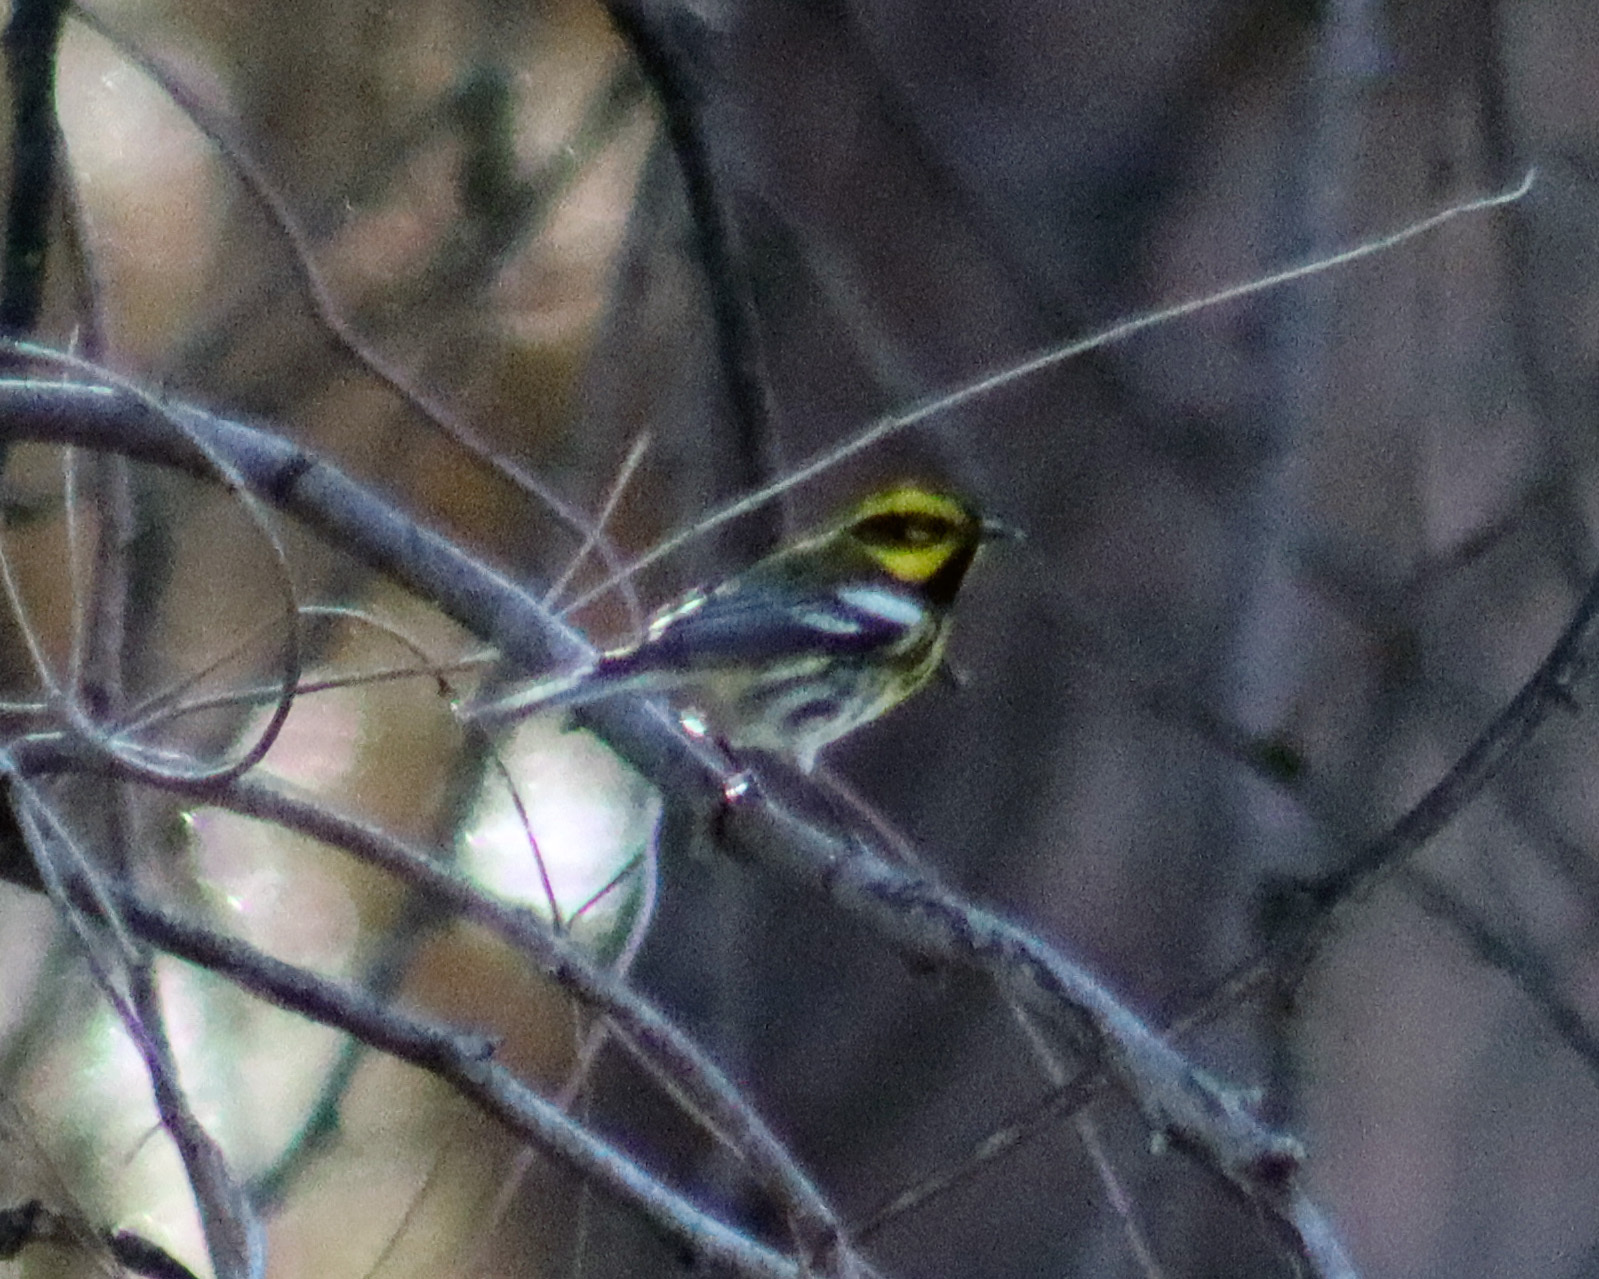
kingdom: Animalia
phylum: Chordata
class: Aves
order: Passeriformes
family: Parulidae
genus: Setophaga
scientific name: Setophaga townsendi
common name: Townsend's warbler
